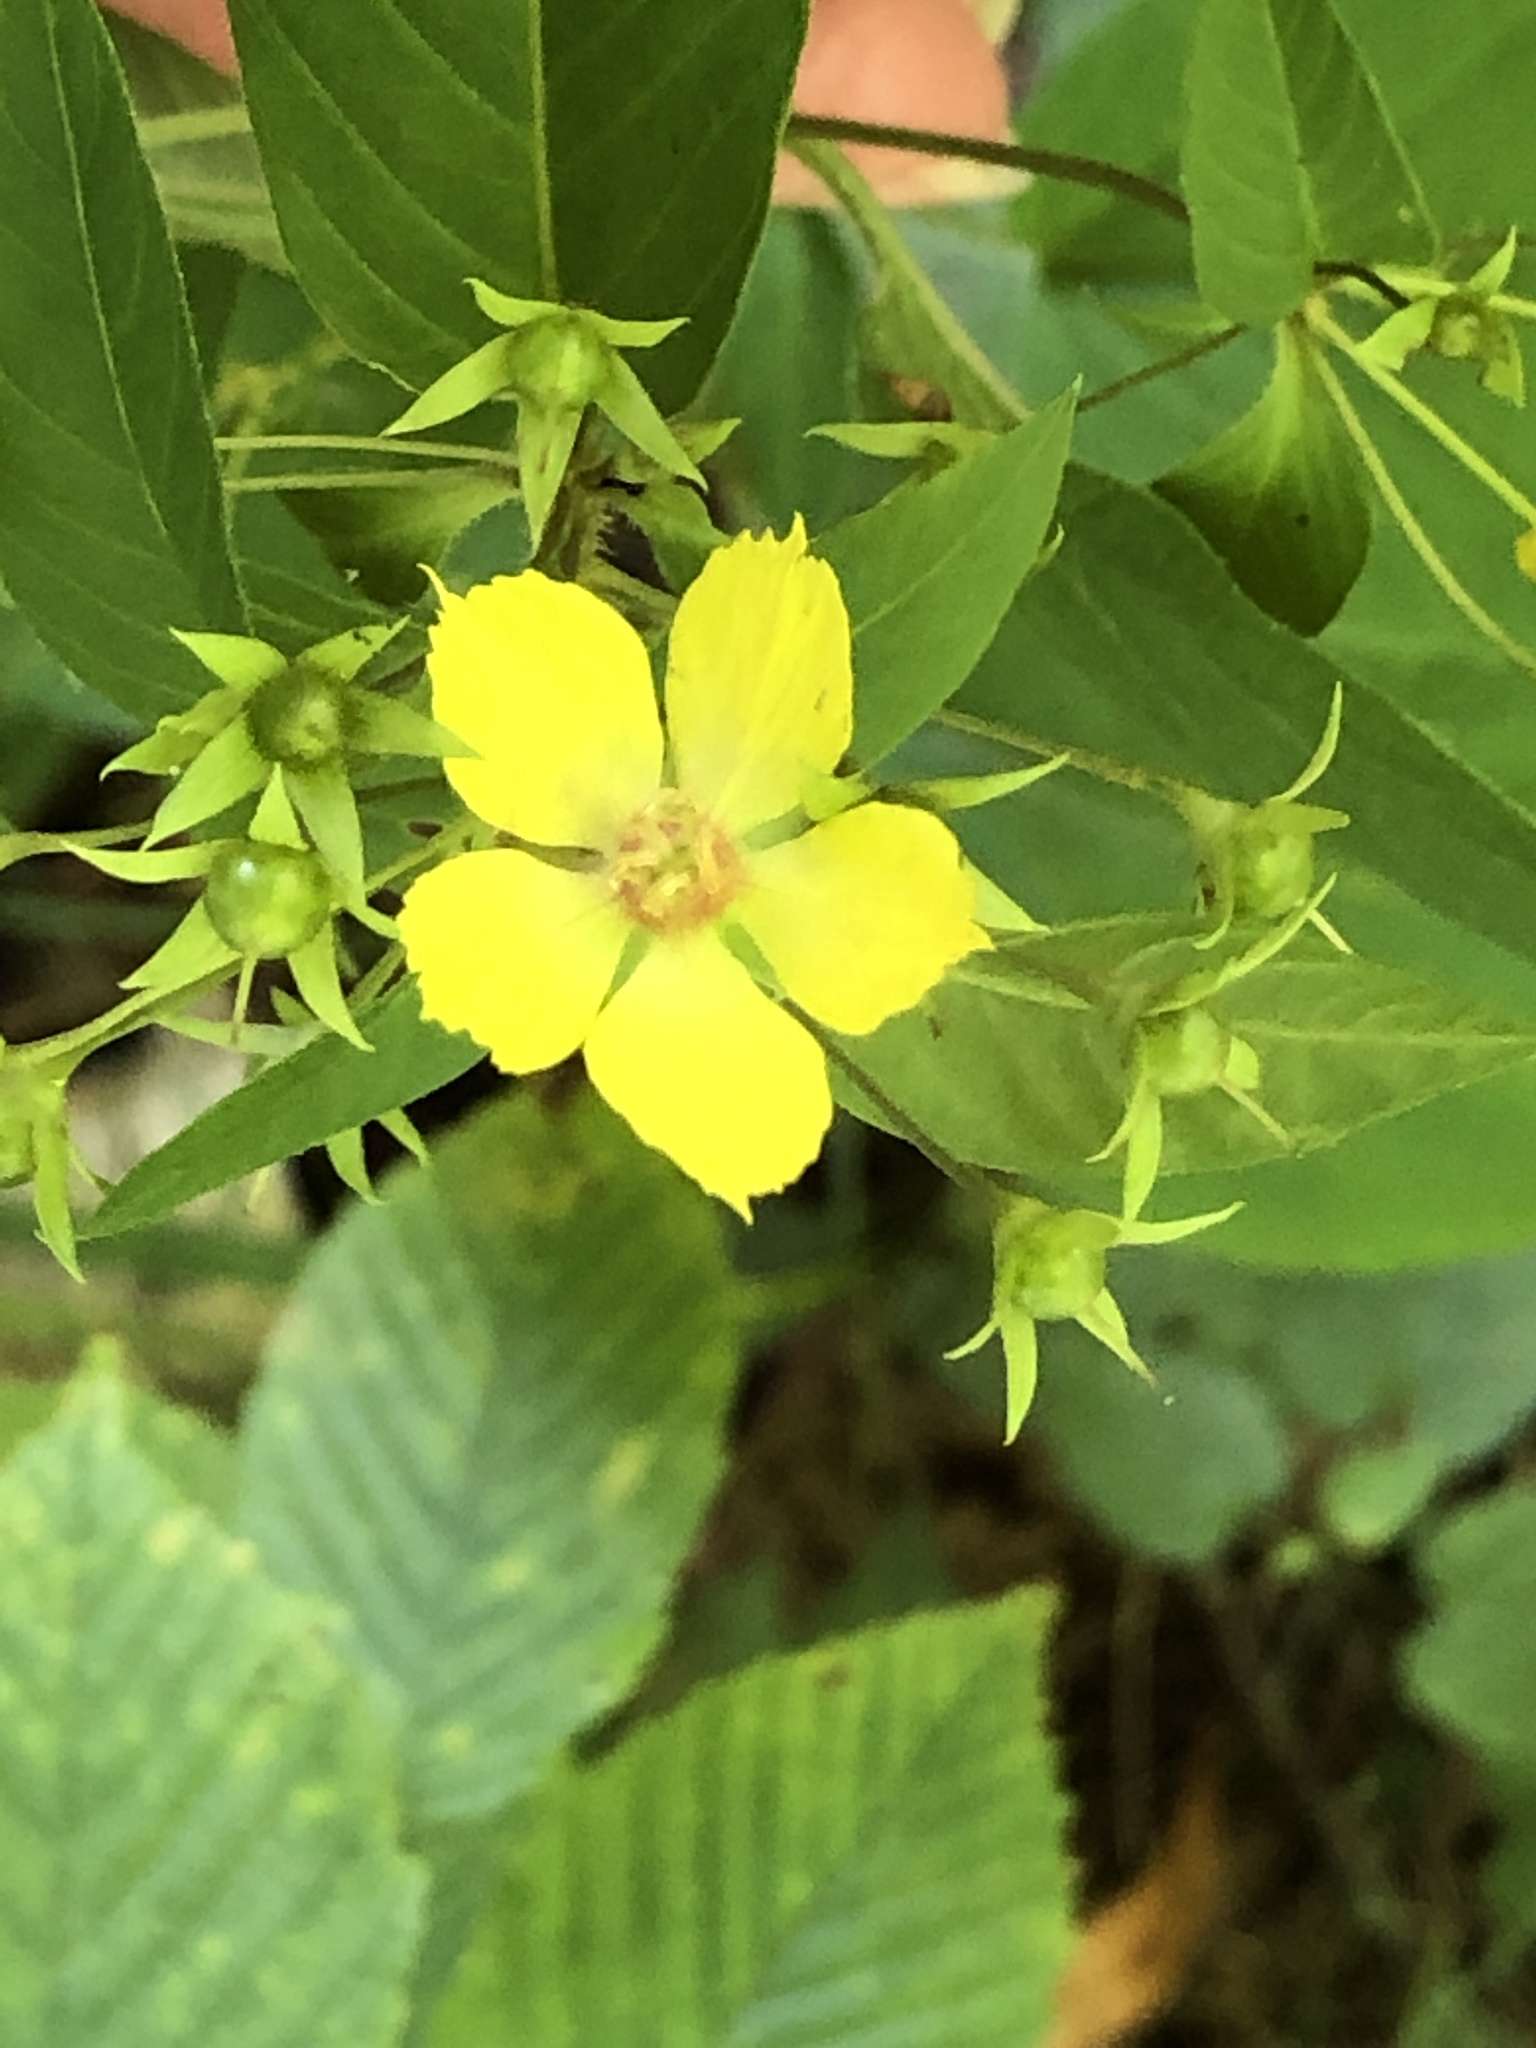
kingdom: Plantae
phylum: Tracheophyta
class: Magnoliopsida
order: Ericales
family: Primulaceae
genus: Lysimachia
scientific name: Lysimachia ciliata
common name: Fringed loosestrife
